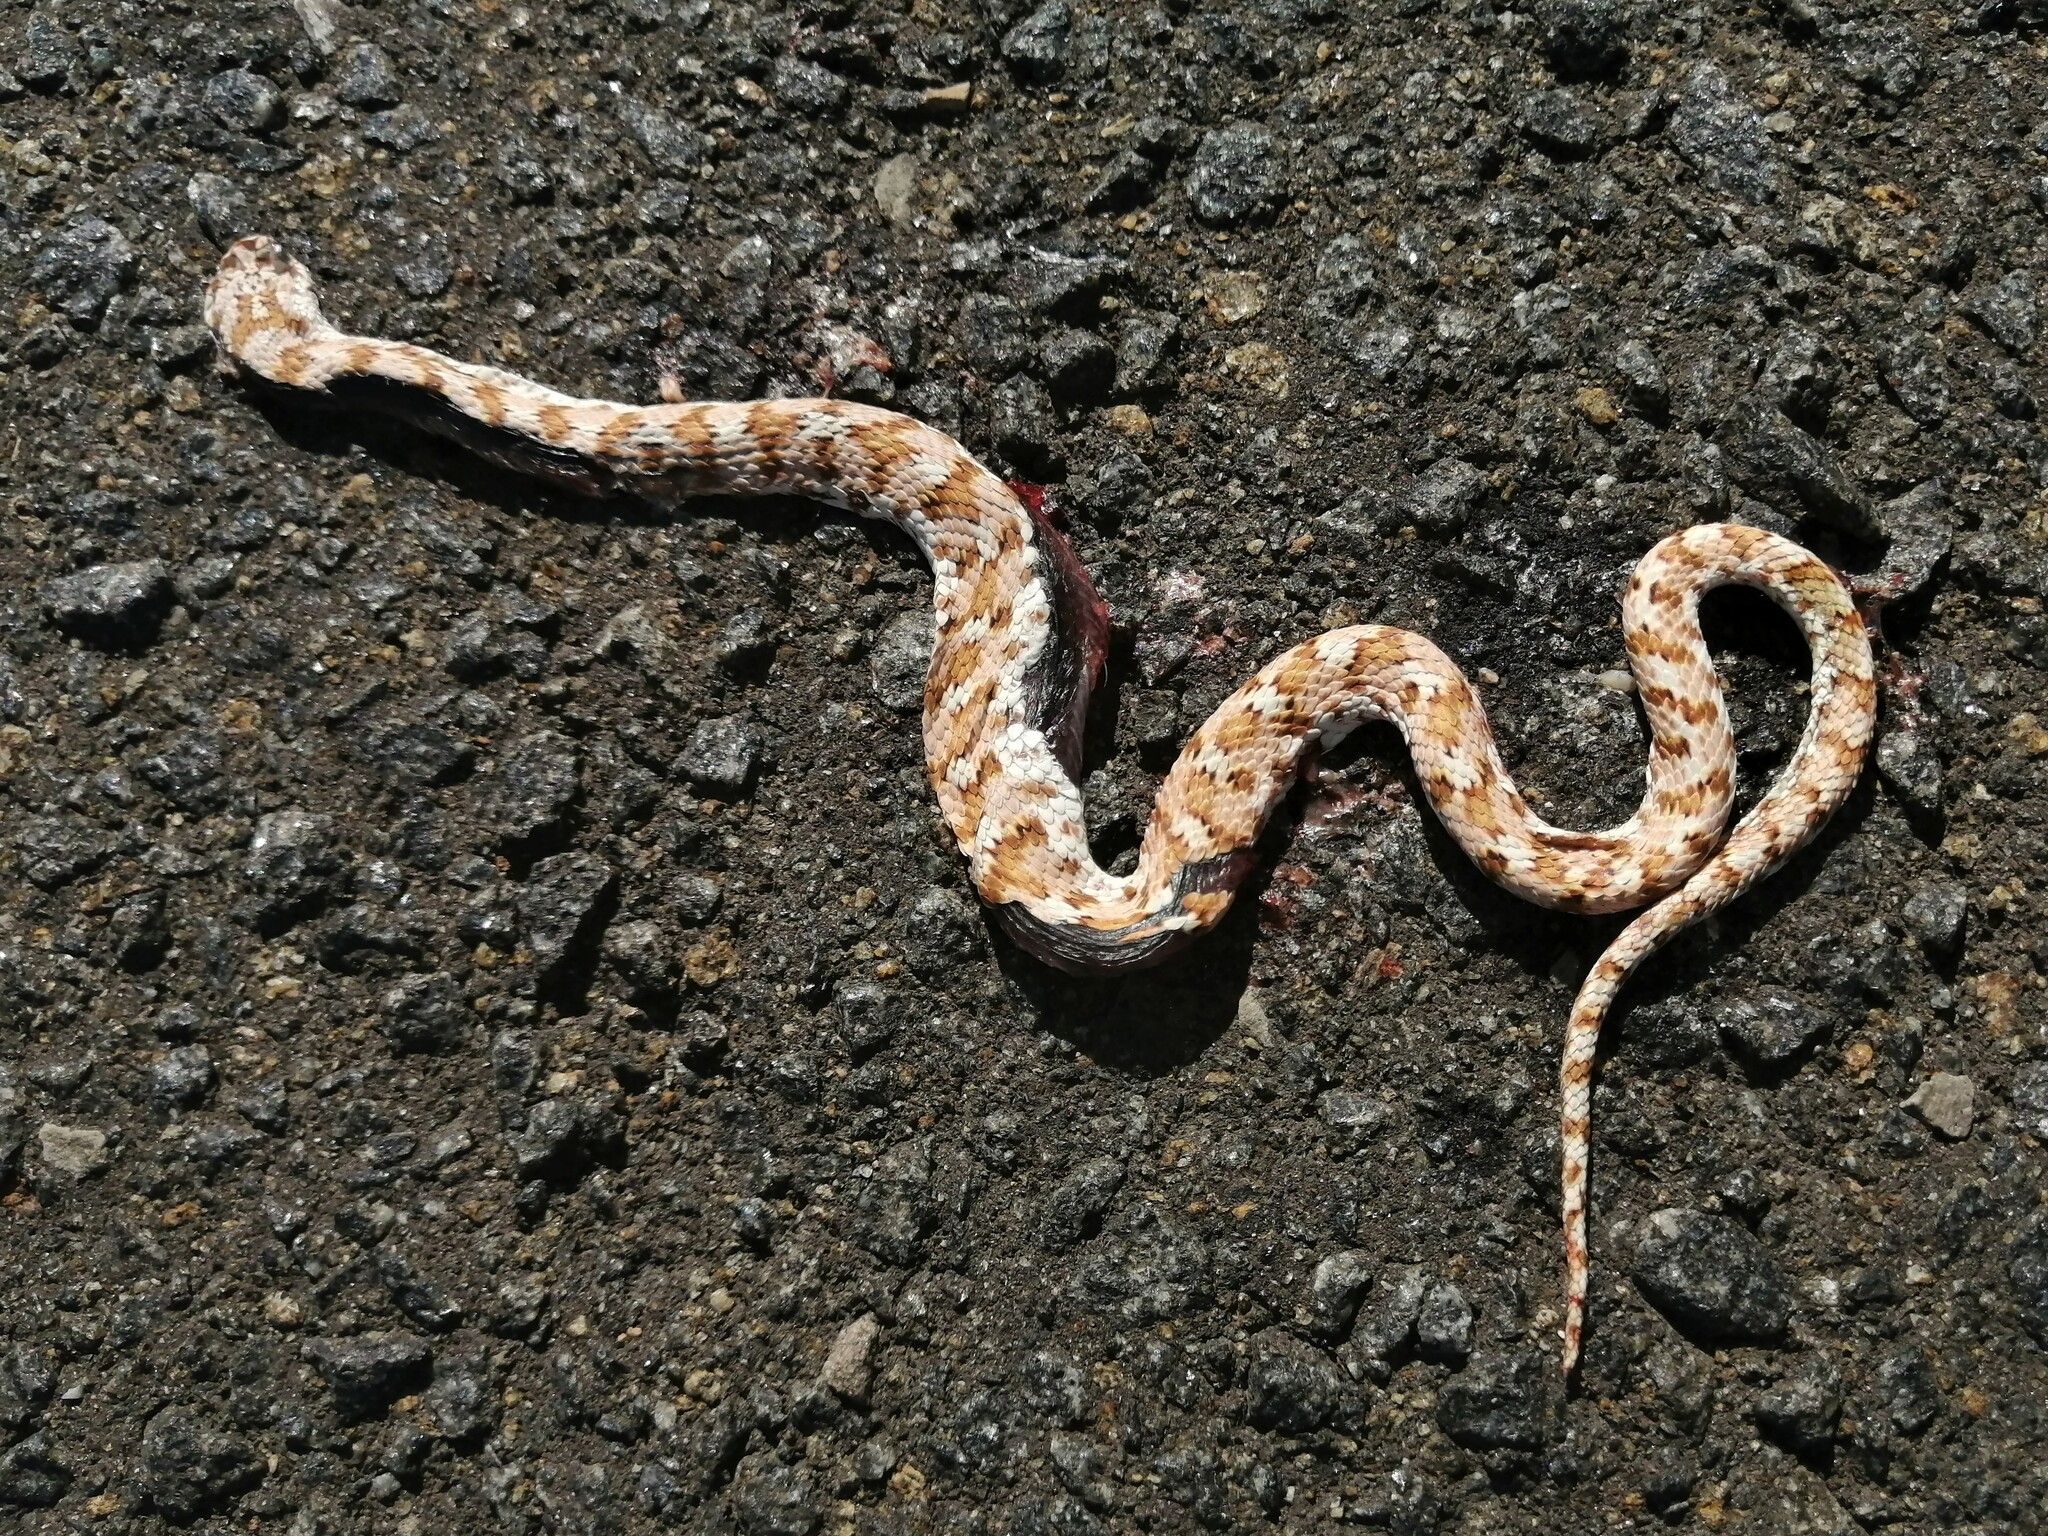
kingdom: Animalia
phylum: Chordata
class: Squamata
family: Psammophiidae
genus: Dipsina
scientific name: Dipsina multimaculata
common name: Dwarf beaked snake
